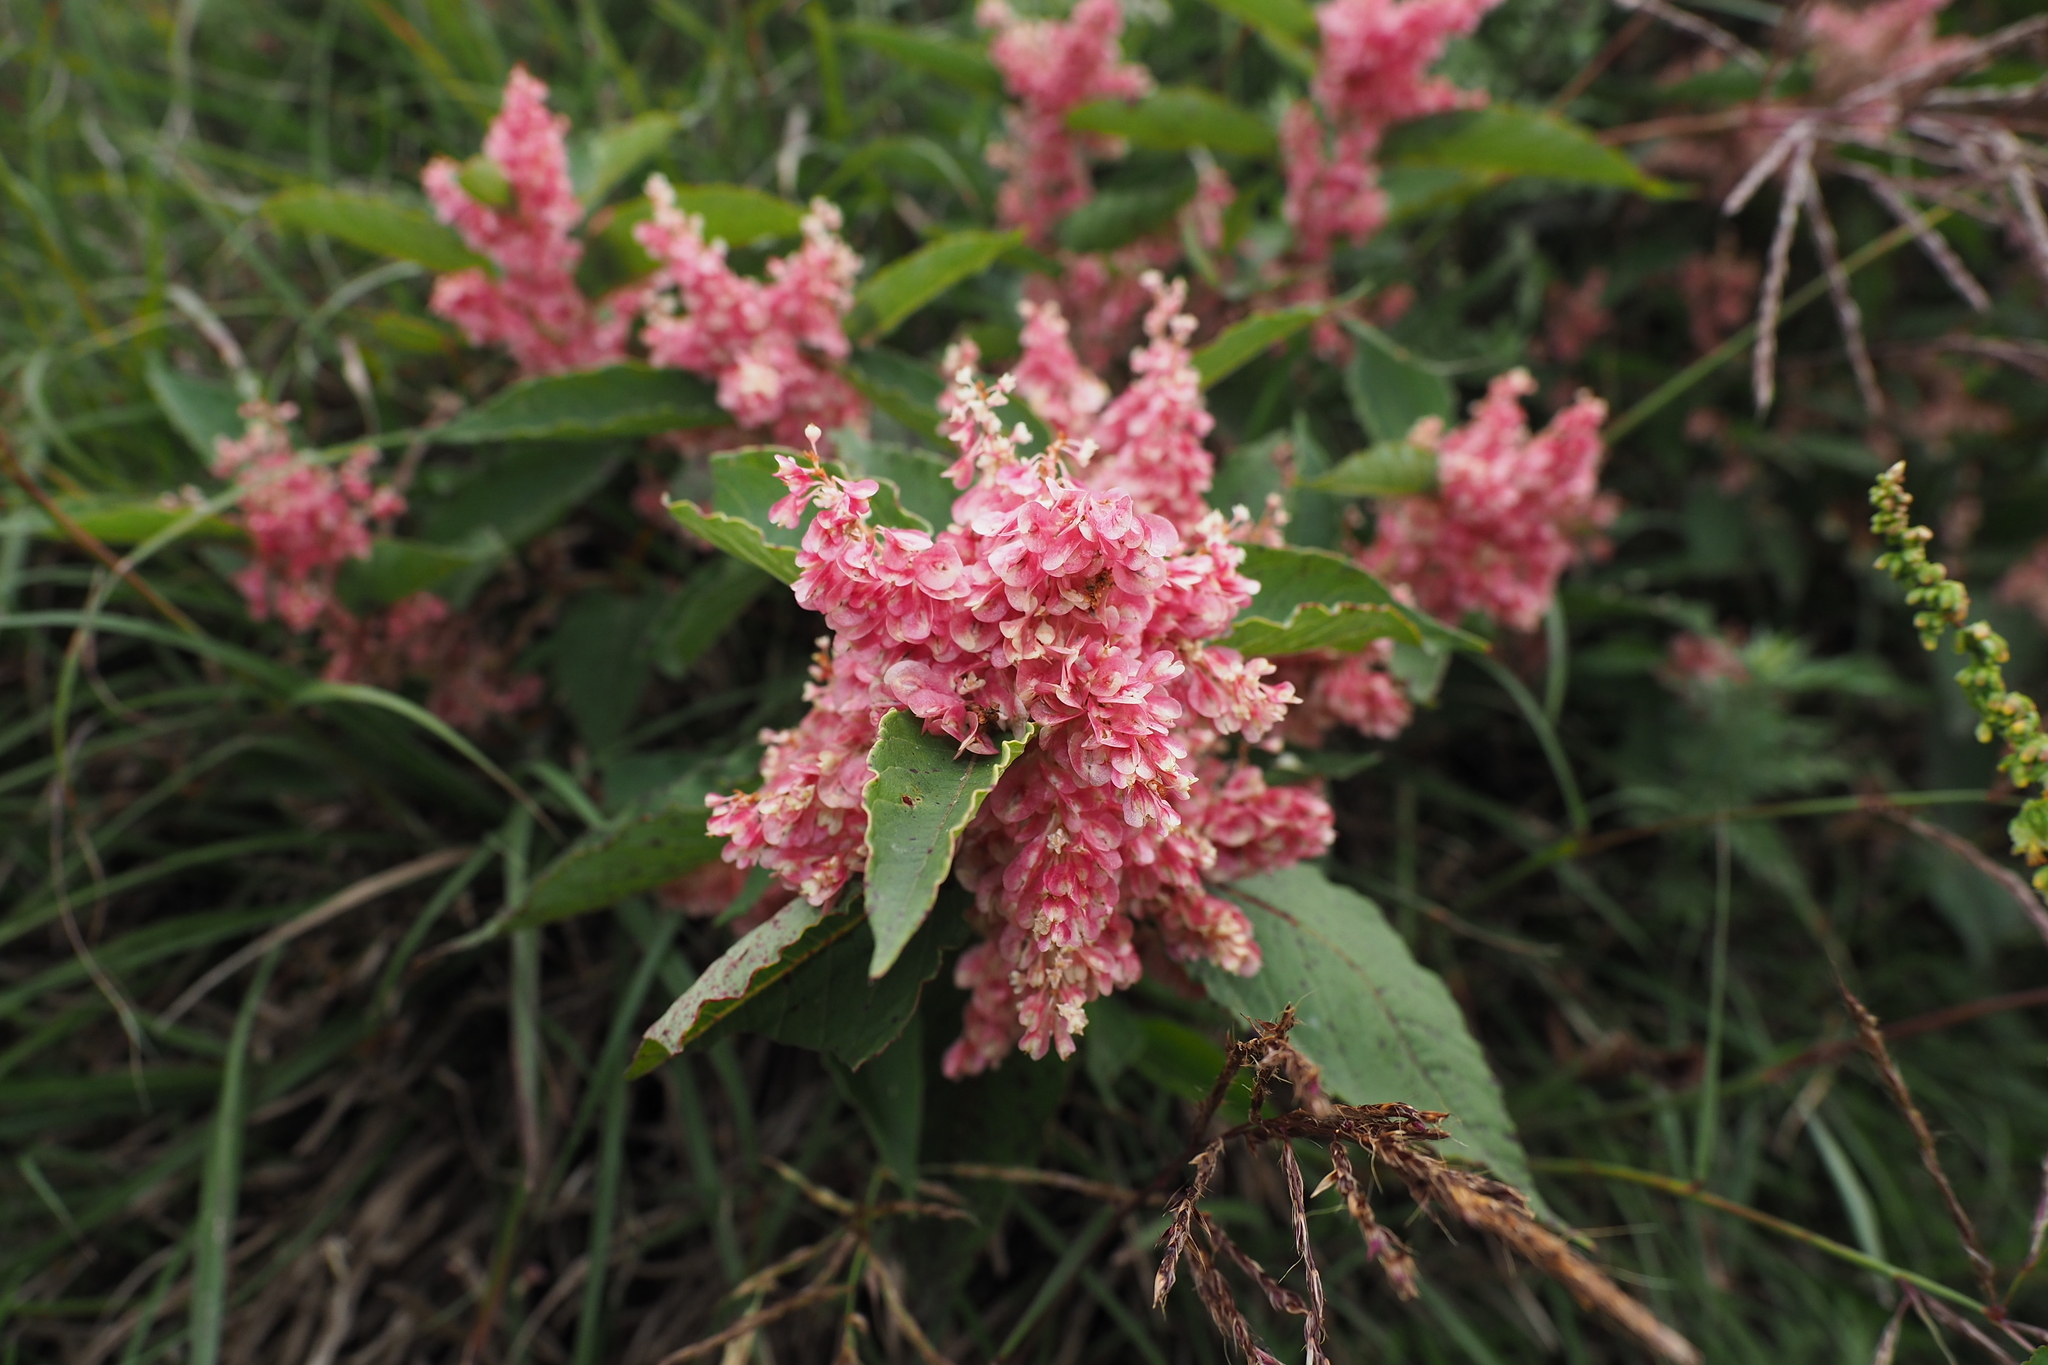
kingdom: Plantae
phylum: Tracheophyta
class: Magnoliopsida
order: Caryophyllales
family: Polygonaceae
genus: Reynoutria
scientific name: Reynoutria japonica
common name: Japanese knotweed
